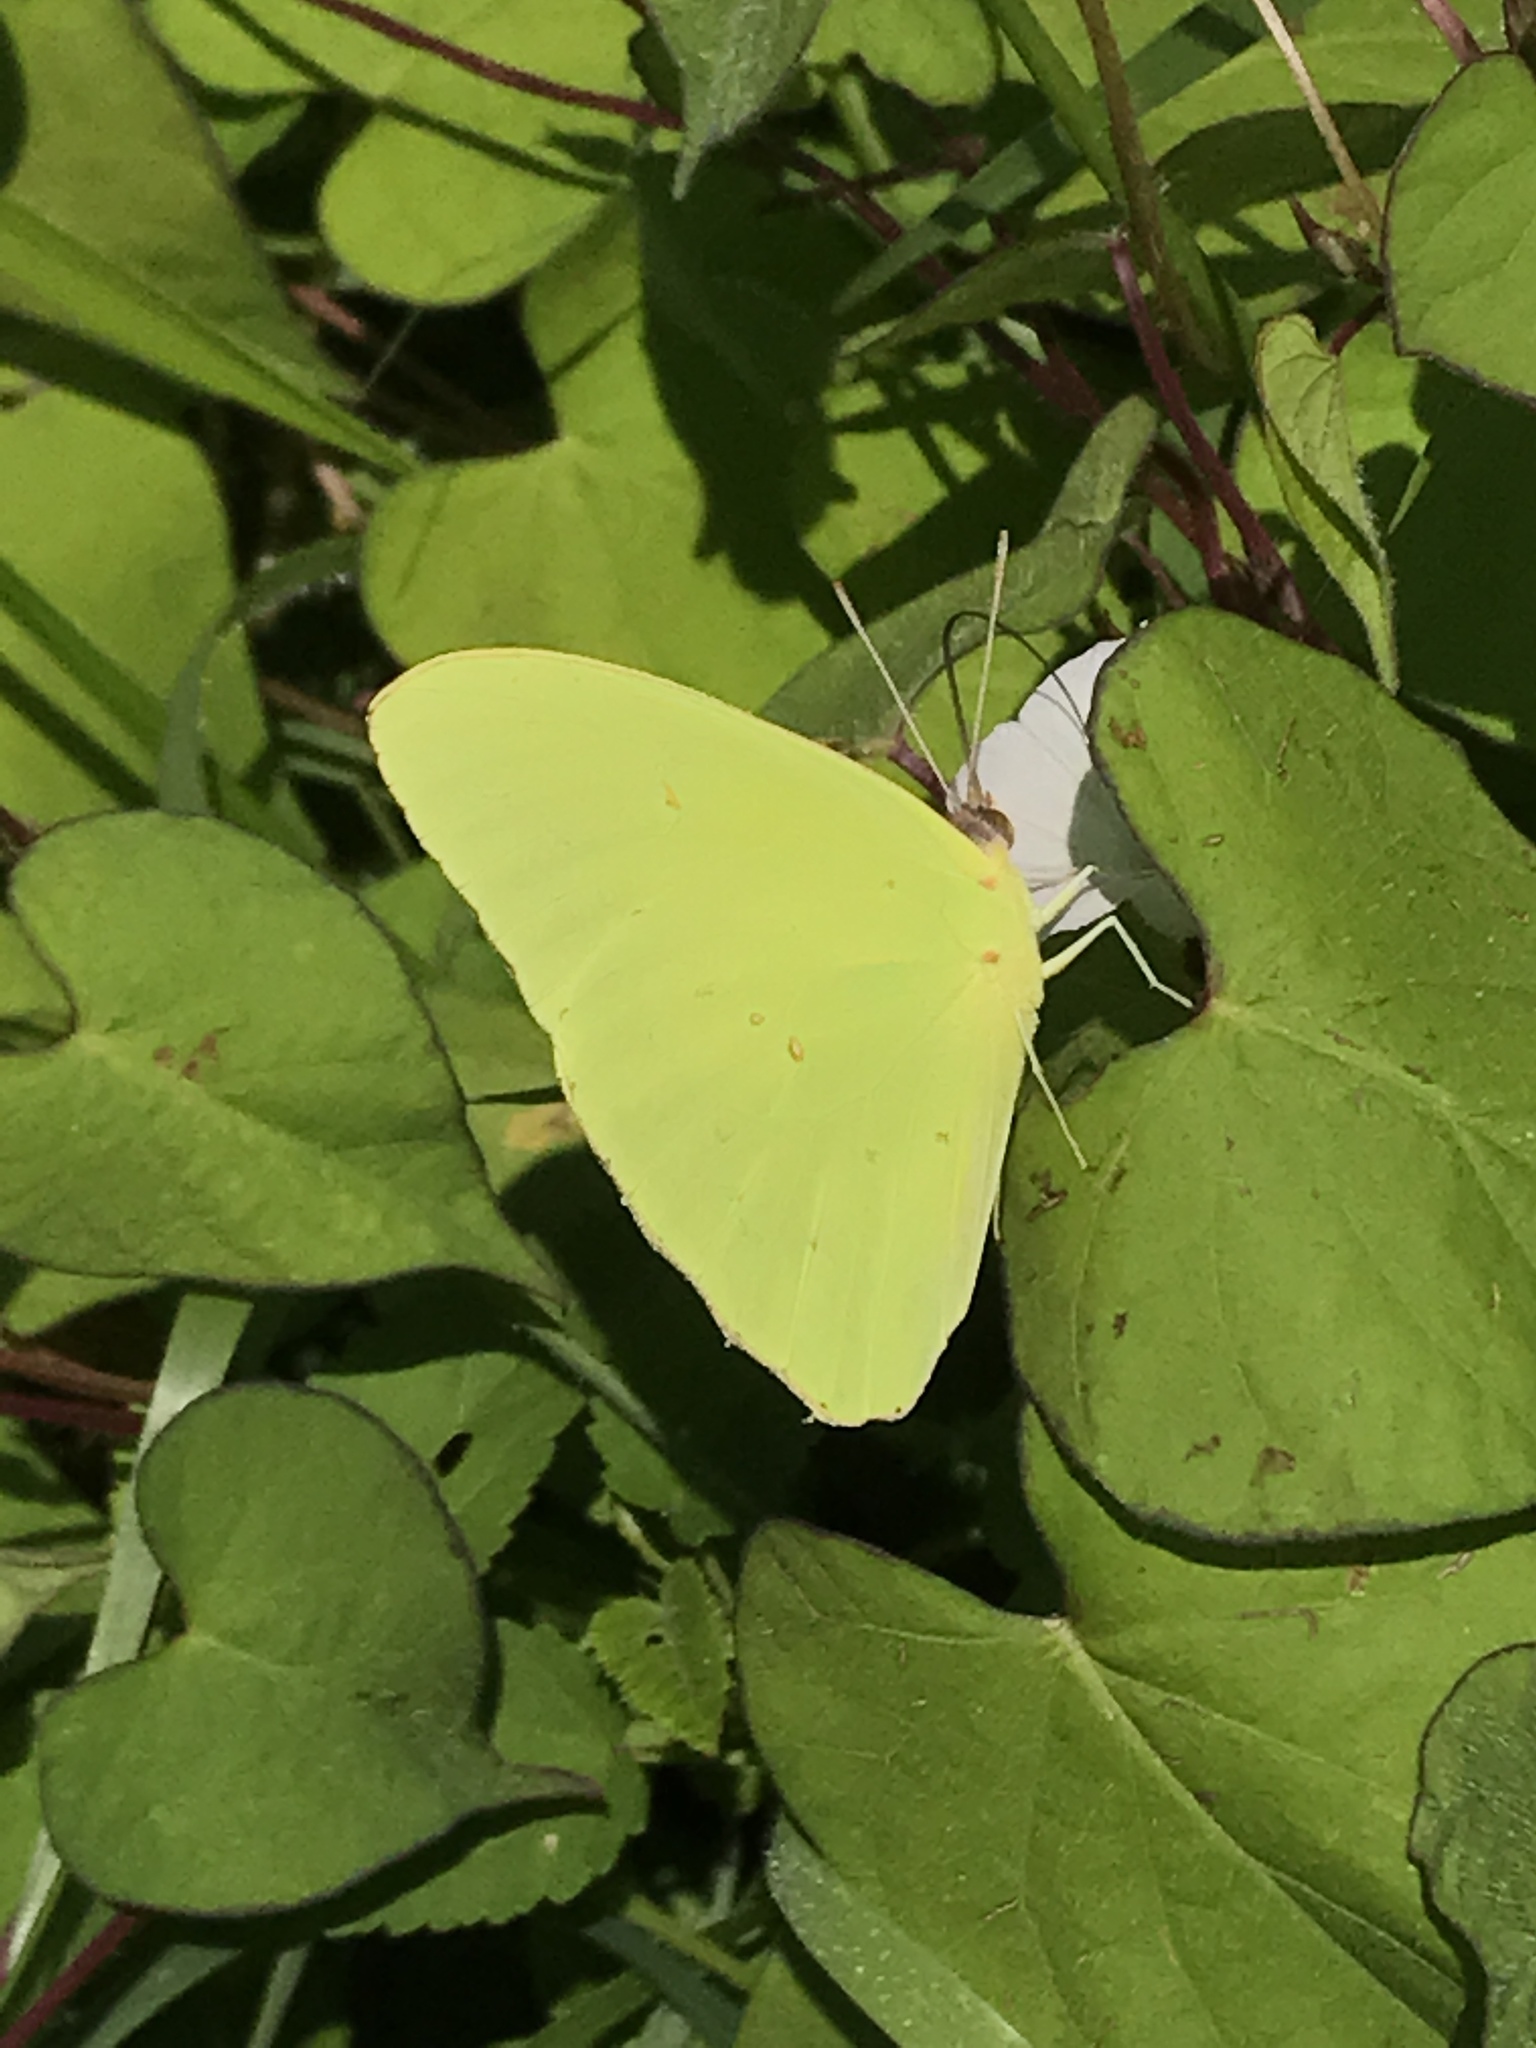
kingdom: Animalia
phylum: Arthropoda
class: Insecta
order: Lepidoptera
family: Pieridae
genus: Phoebis
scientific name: Phoebis sennae
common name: Cloudless sulphur
